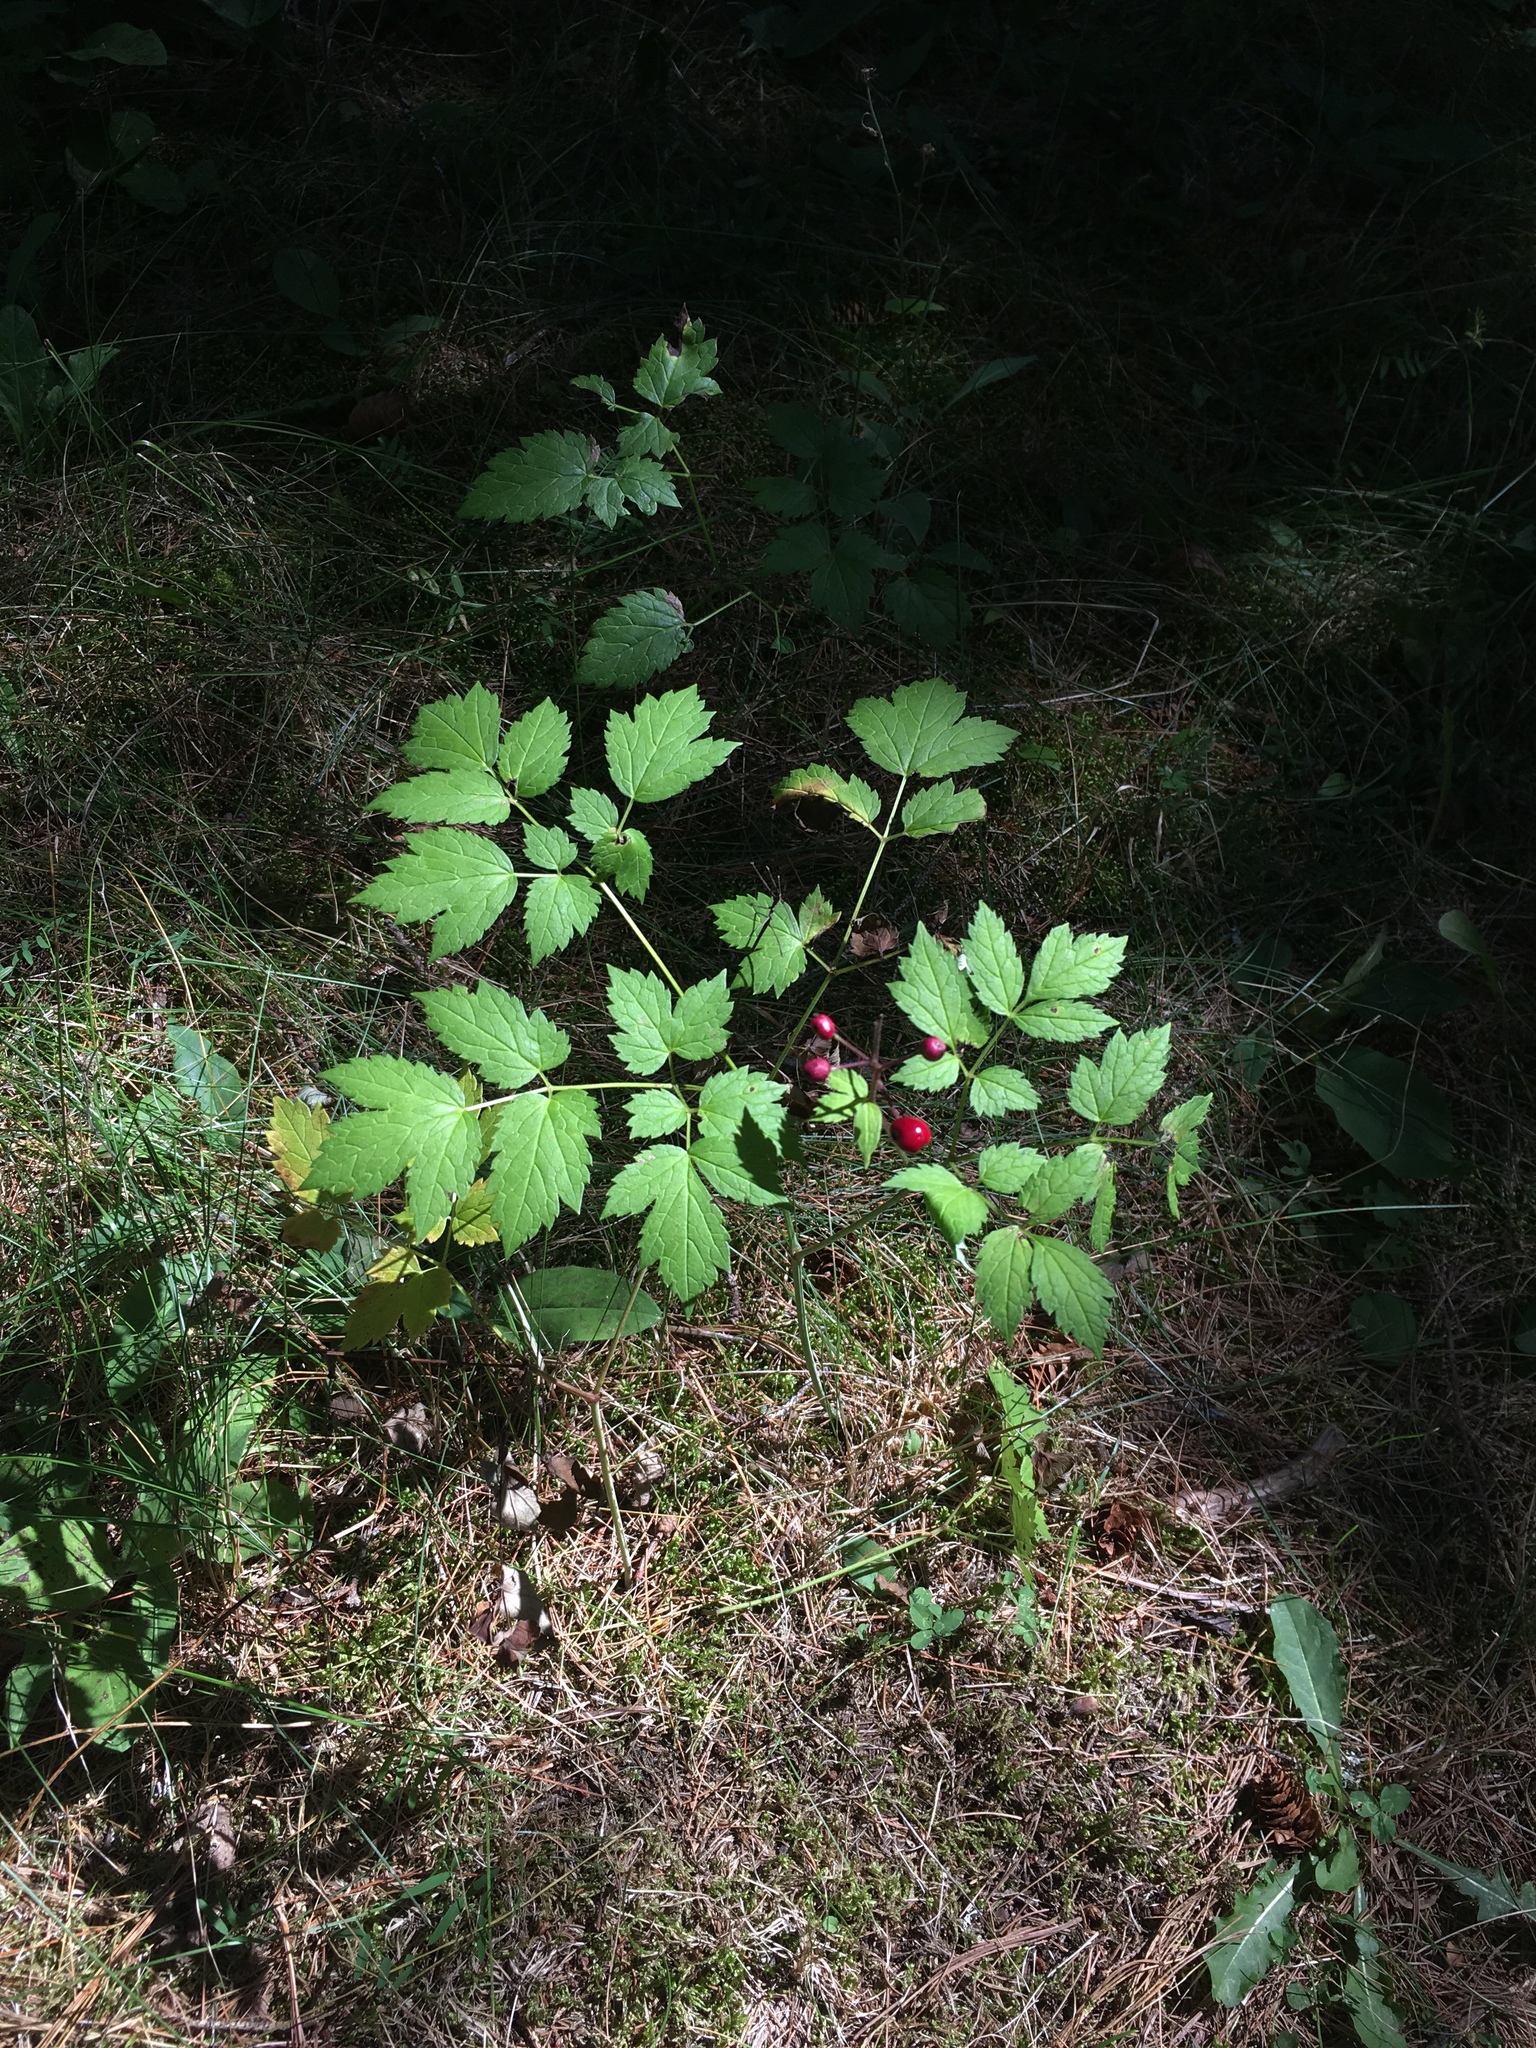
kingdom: Plantae
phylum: Tracheophyta
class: Magnoliopsida
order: Ranunculales
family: Ranunculaceae
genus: Actaea
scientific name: Actaea rubra
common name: Red baneberry
